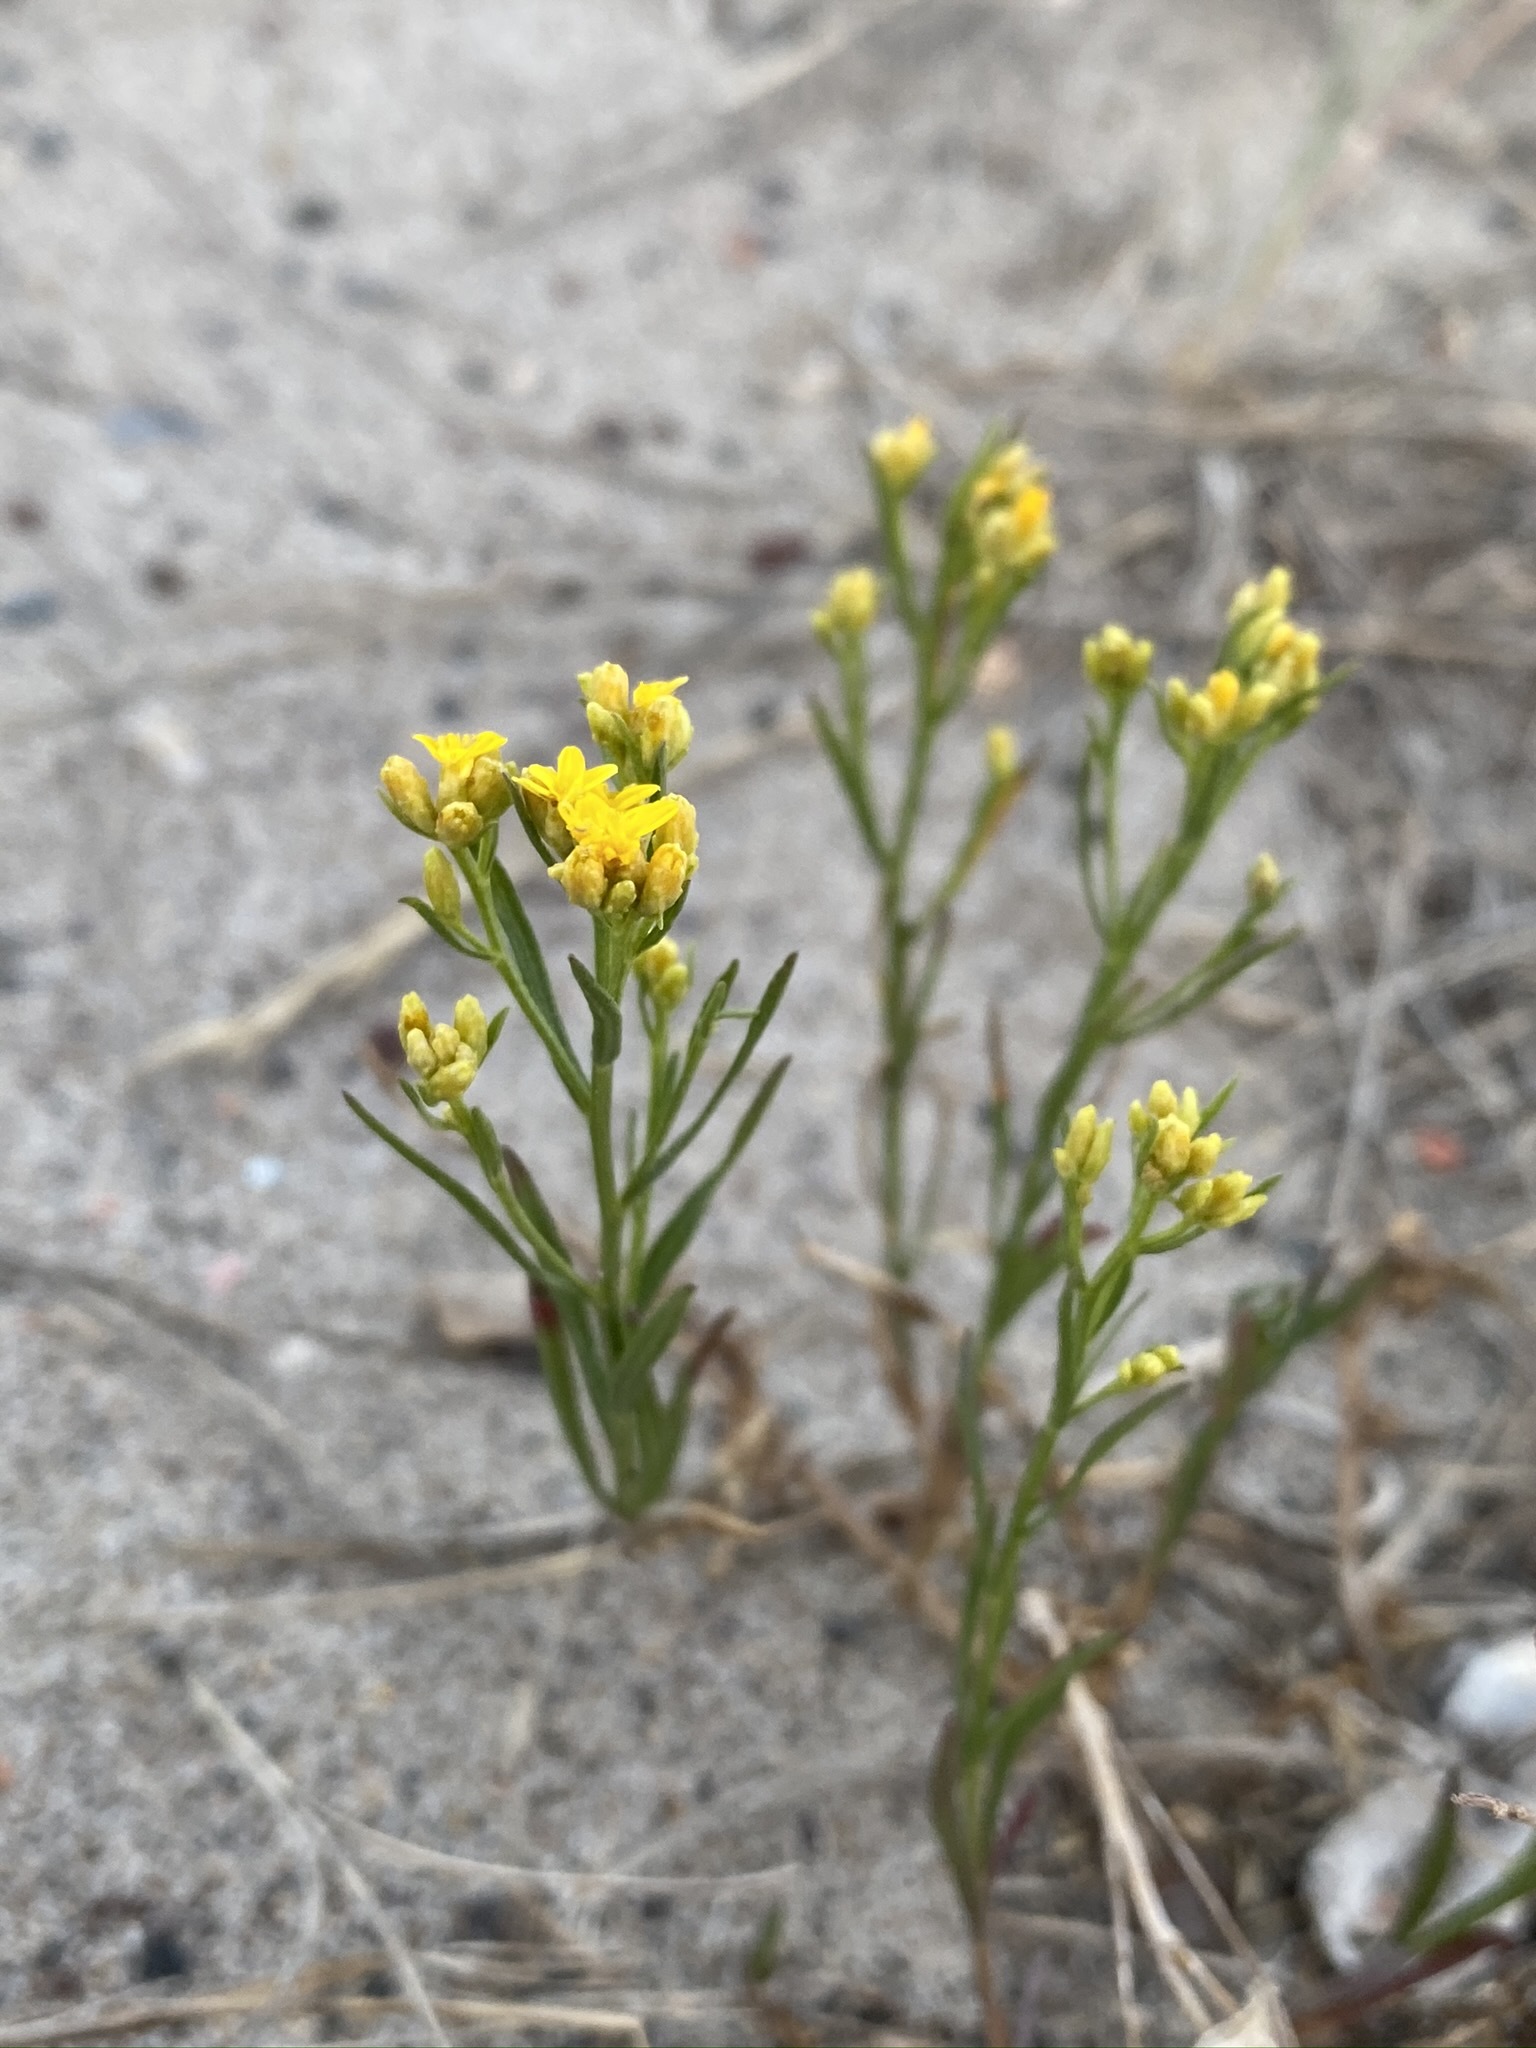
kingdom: Plantae
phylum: Tracheophyta
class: Magnoliopsida
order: Asterales
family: Asteraceae
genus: Gutierrezia
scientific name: Gutierrezia sarothrae
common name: Broom snakeweed
